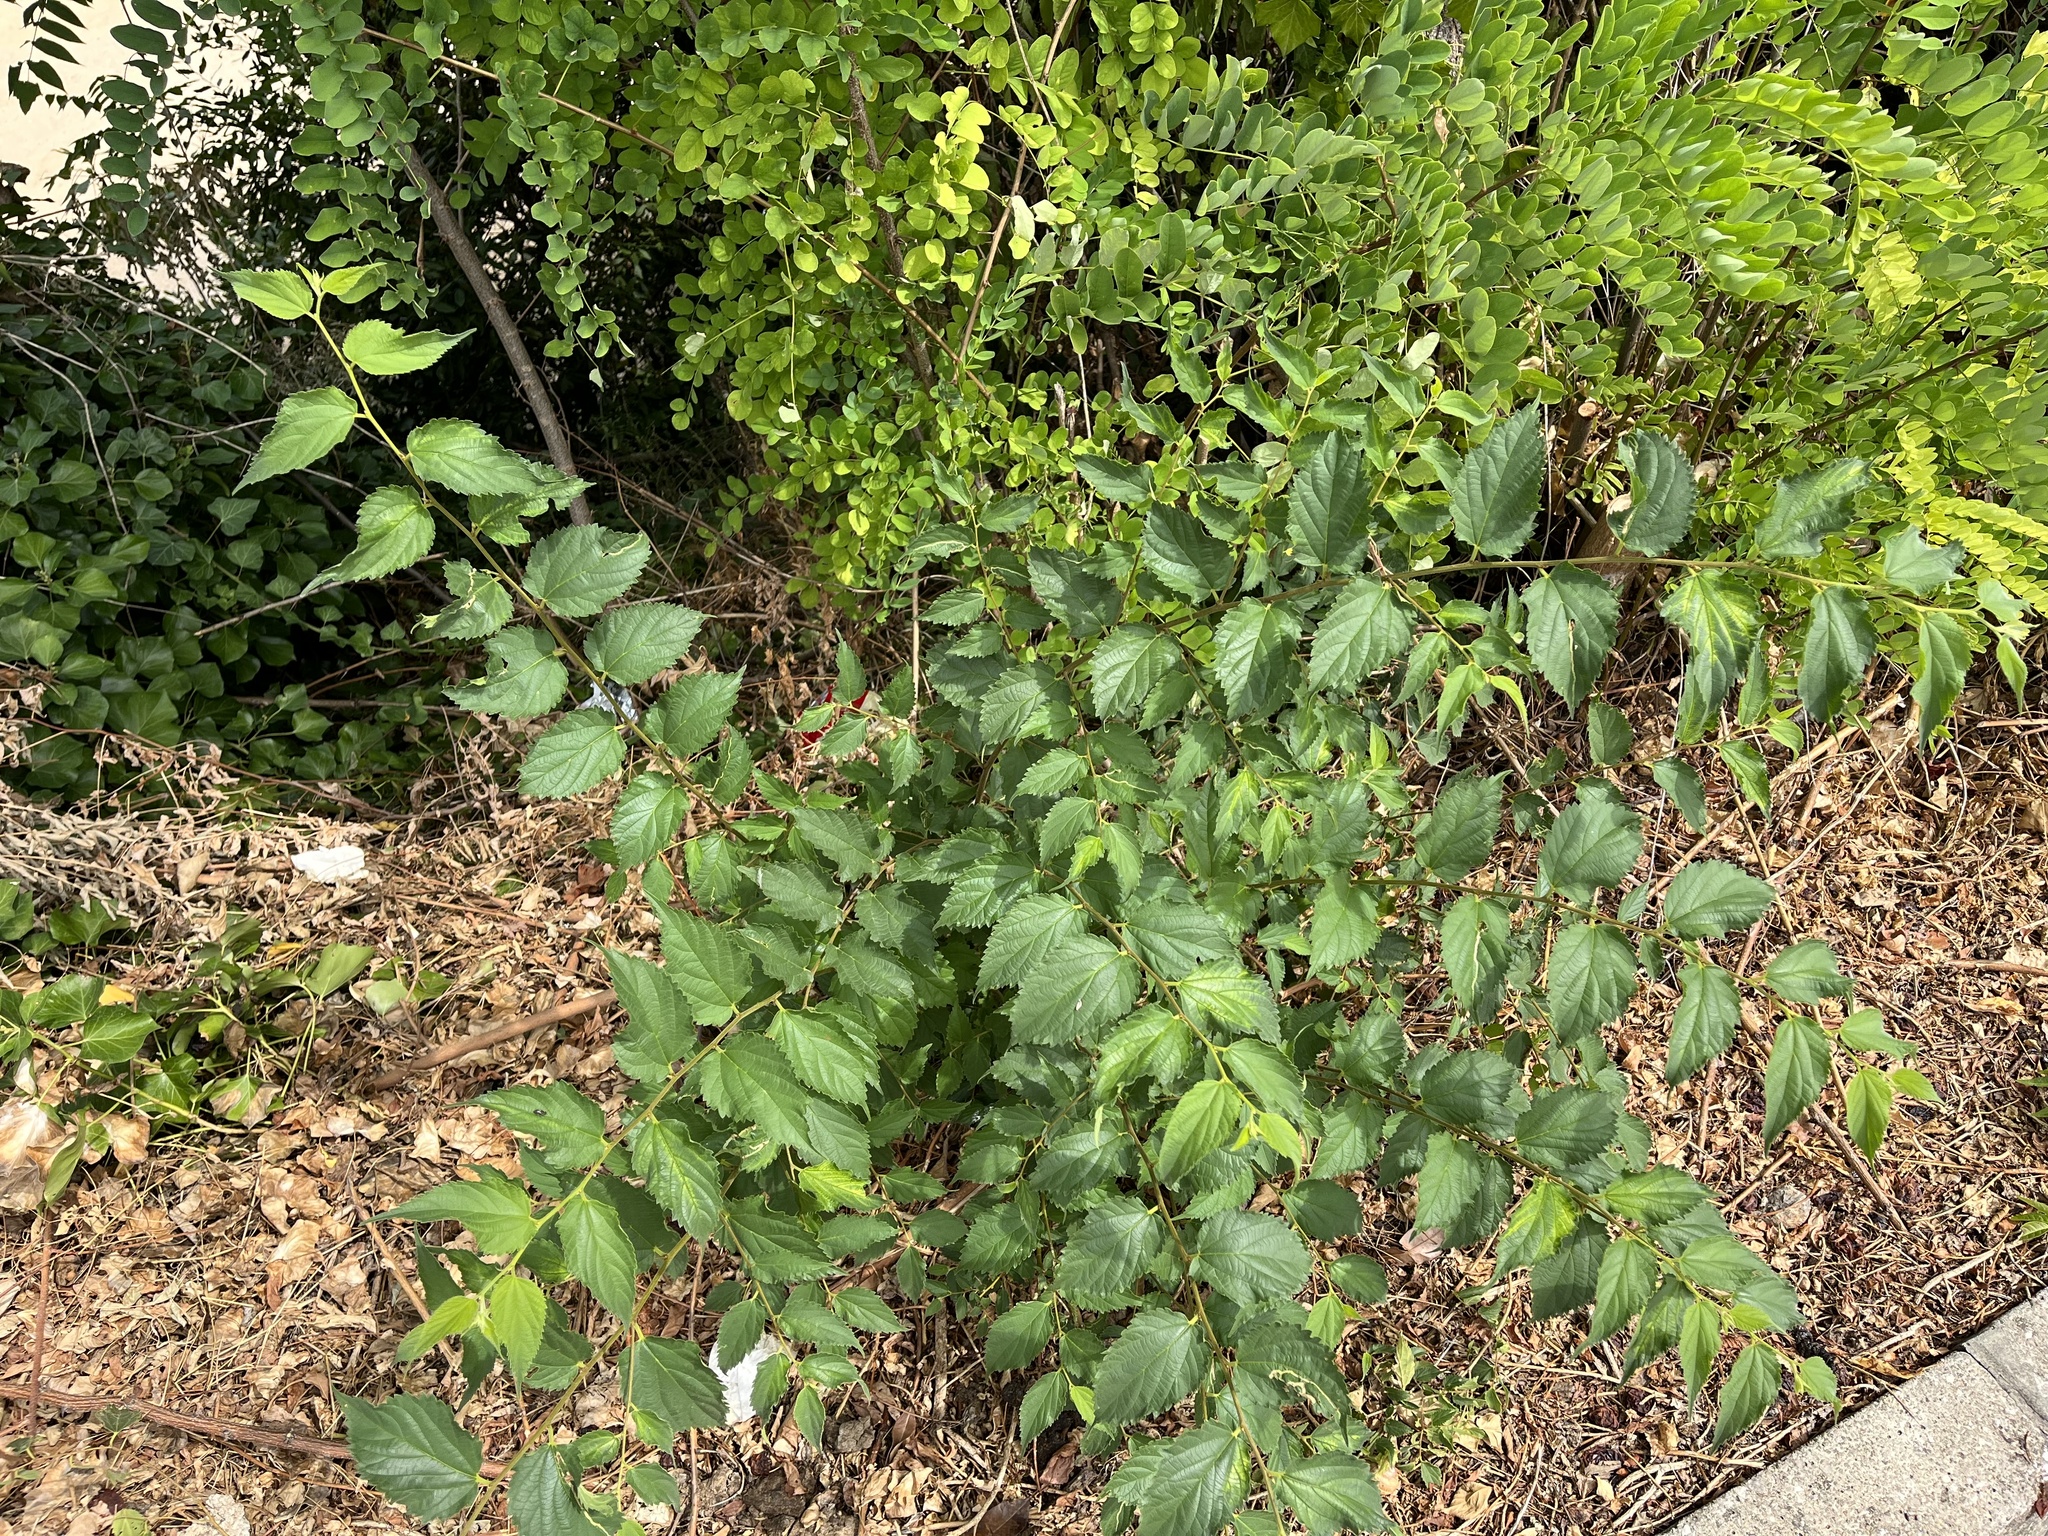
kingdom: Plantae
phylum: Tracheophyta
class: Magnoliopsida
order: Rosales
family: Cannabaceae
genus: Celtis
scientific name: Celtis australis
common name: European hackberry
